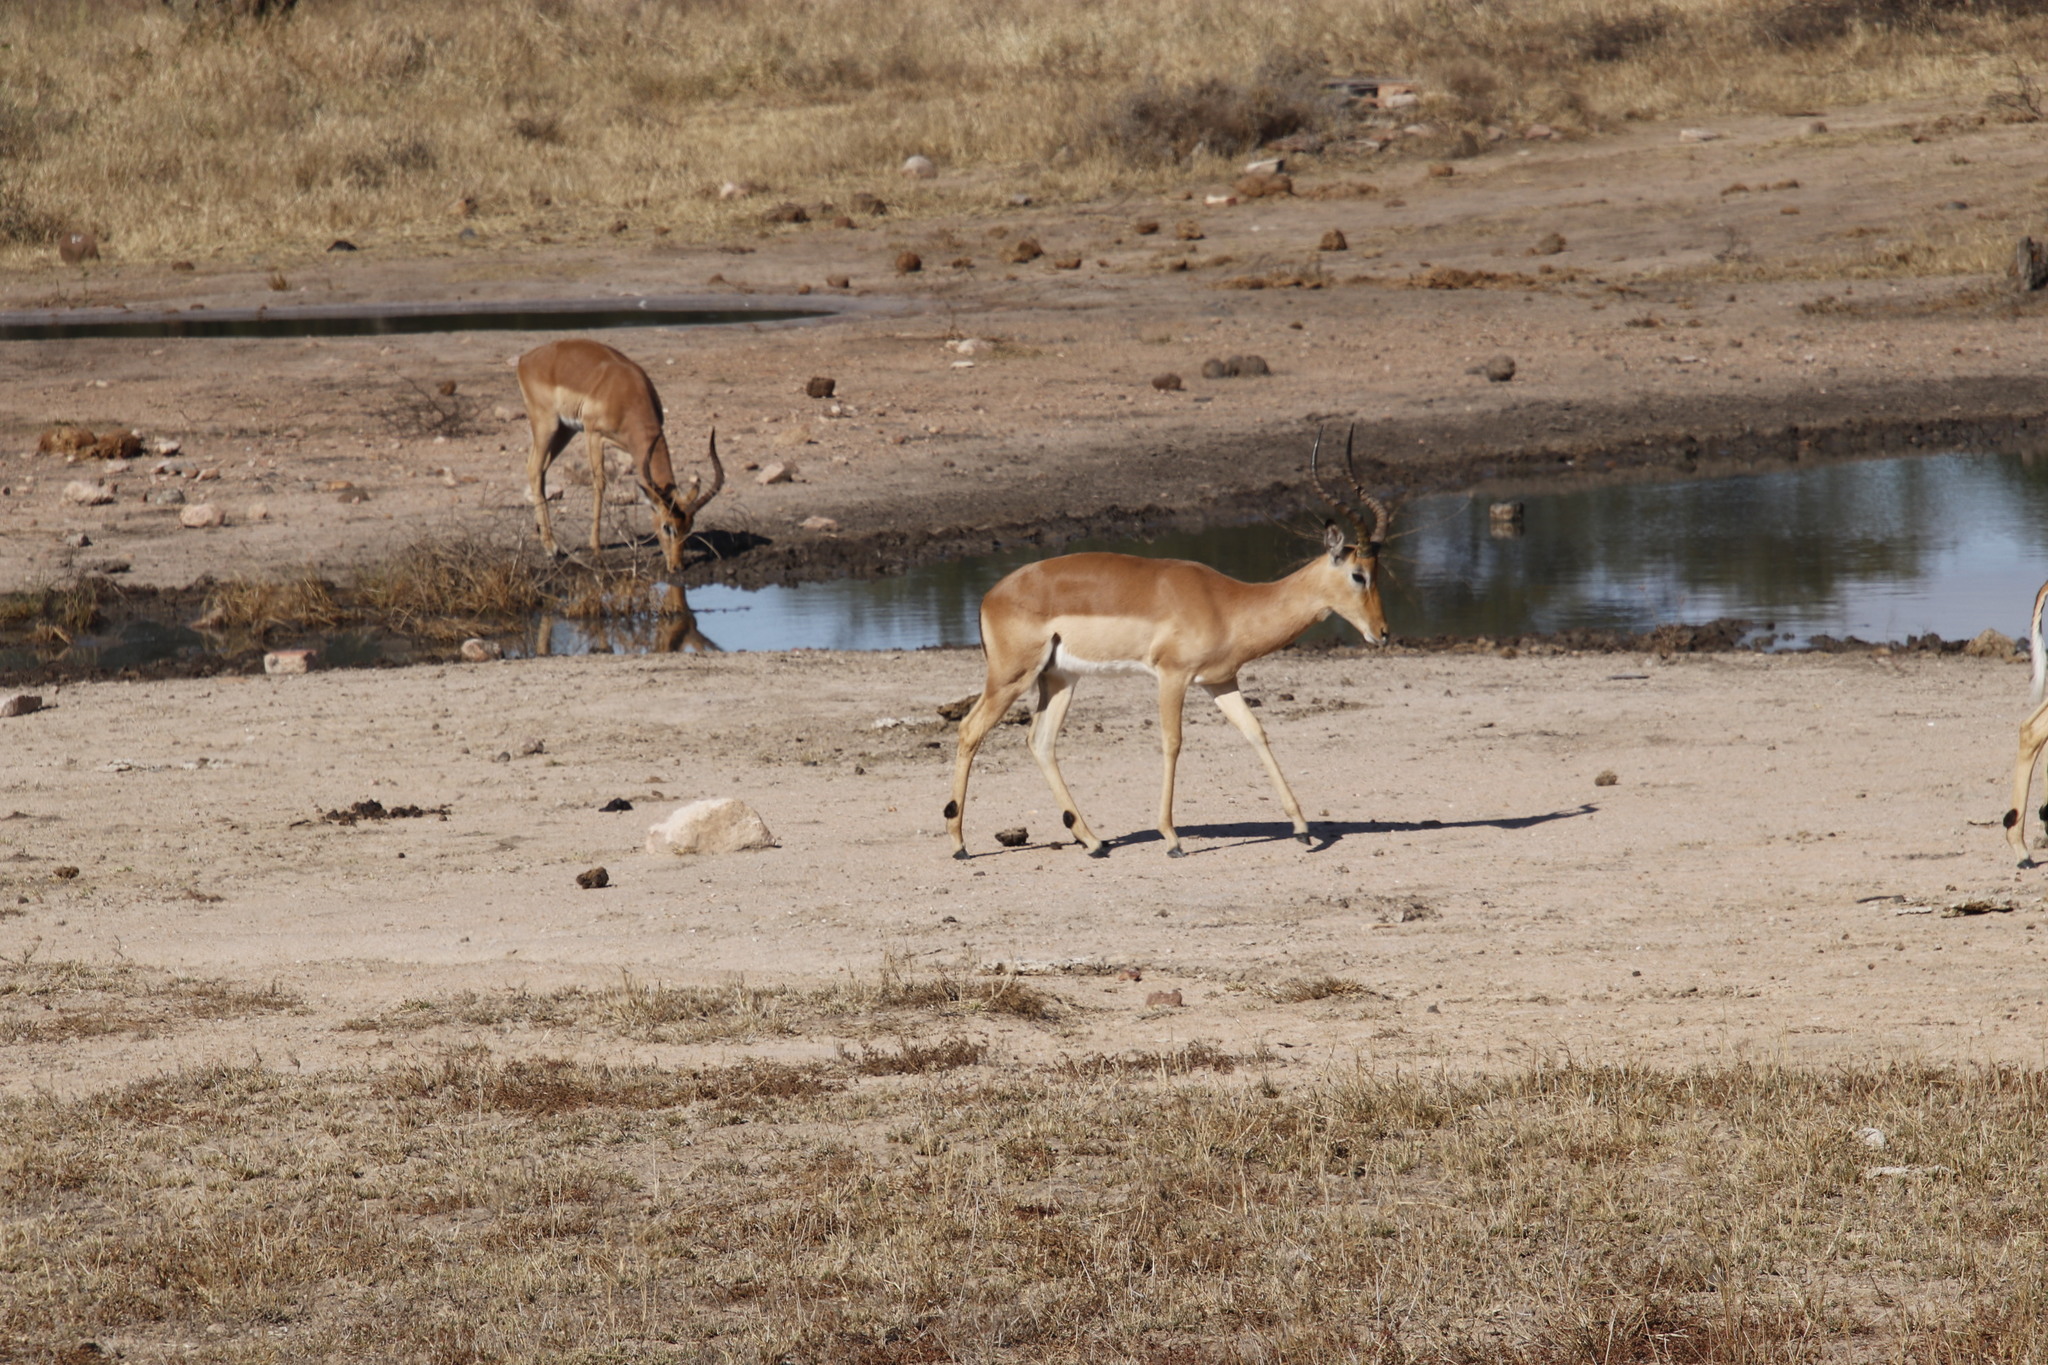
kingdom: Animalia
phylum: Chordata
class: Mammalia
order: Artiodactyla
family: Bovidae
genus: Aepyceros
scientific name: Aepyceros melampus
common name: Impala
